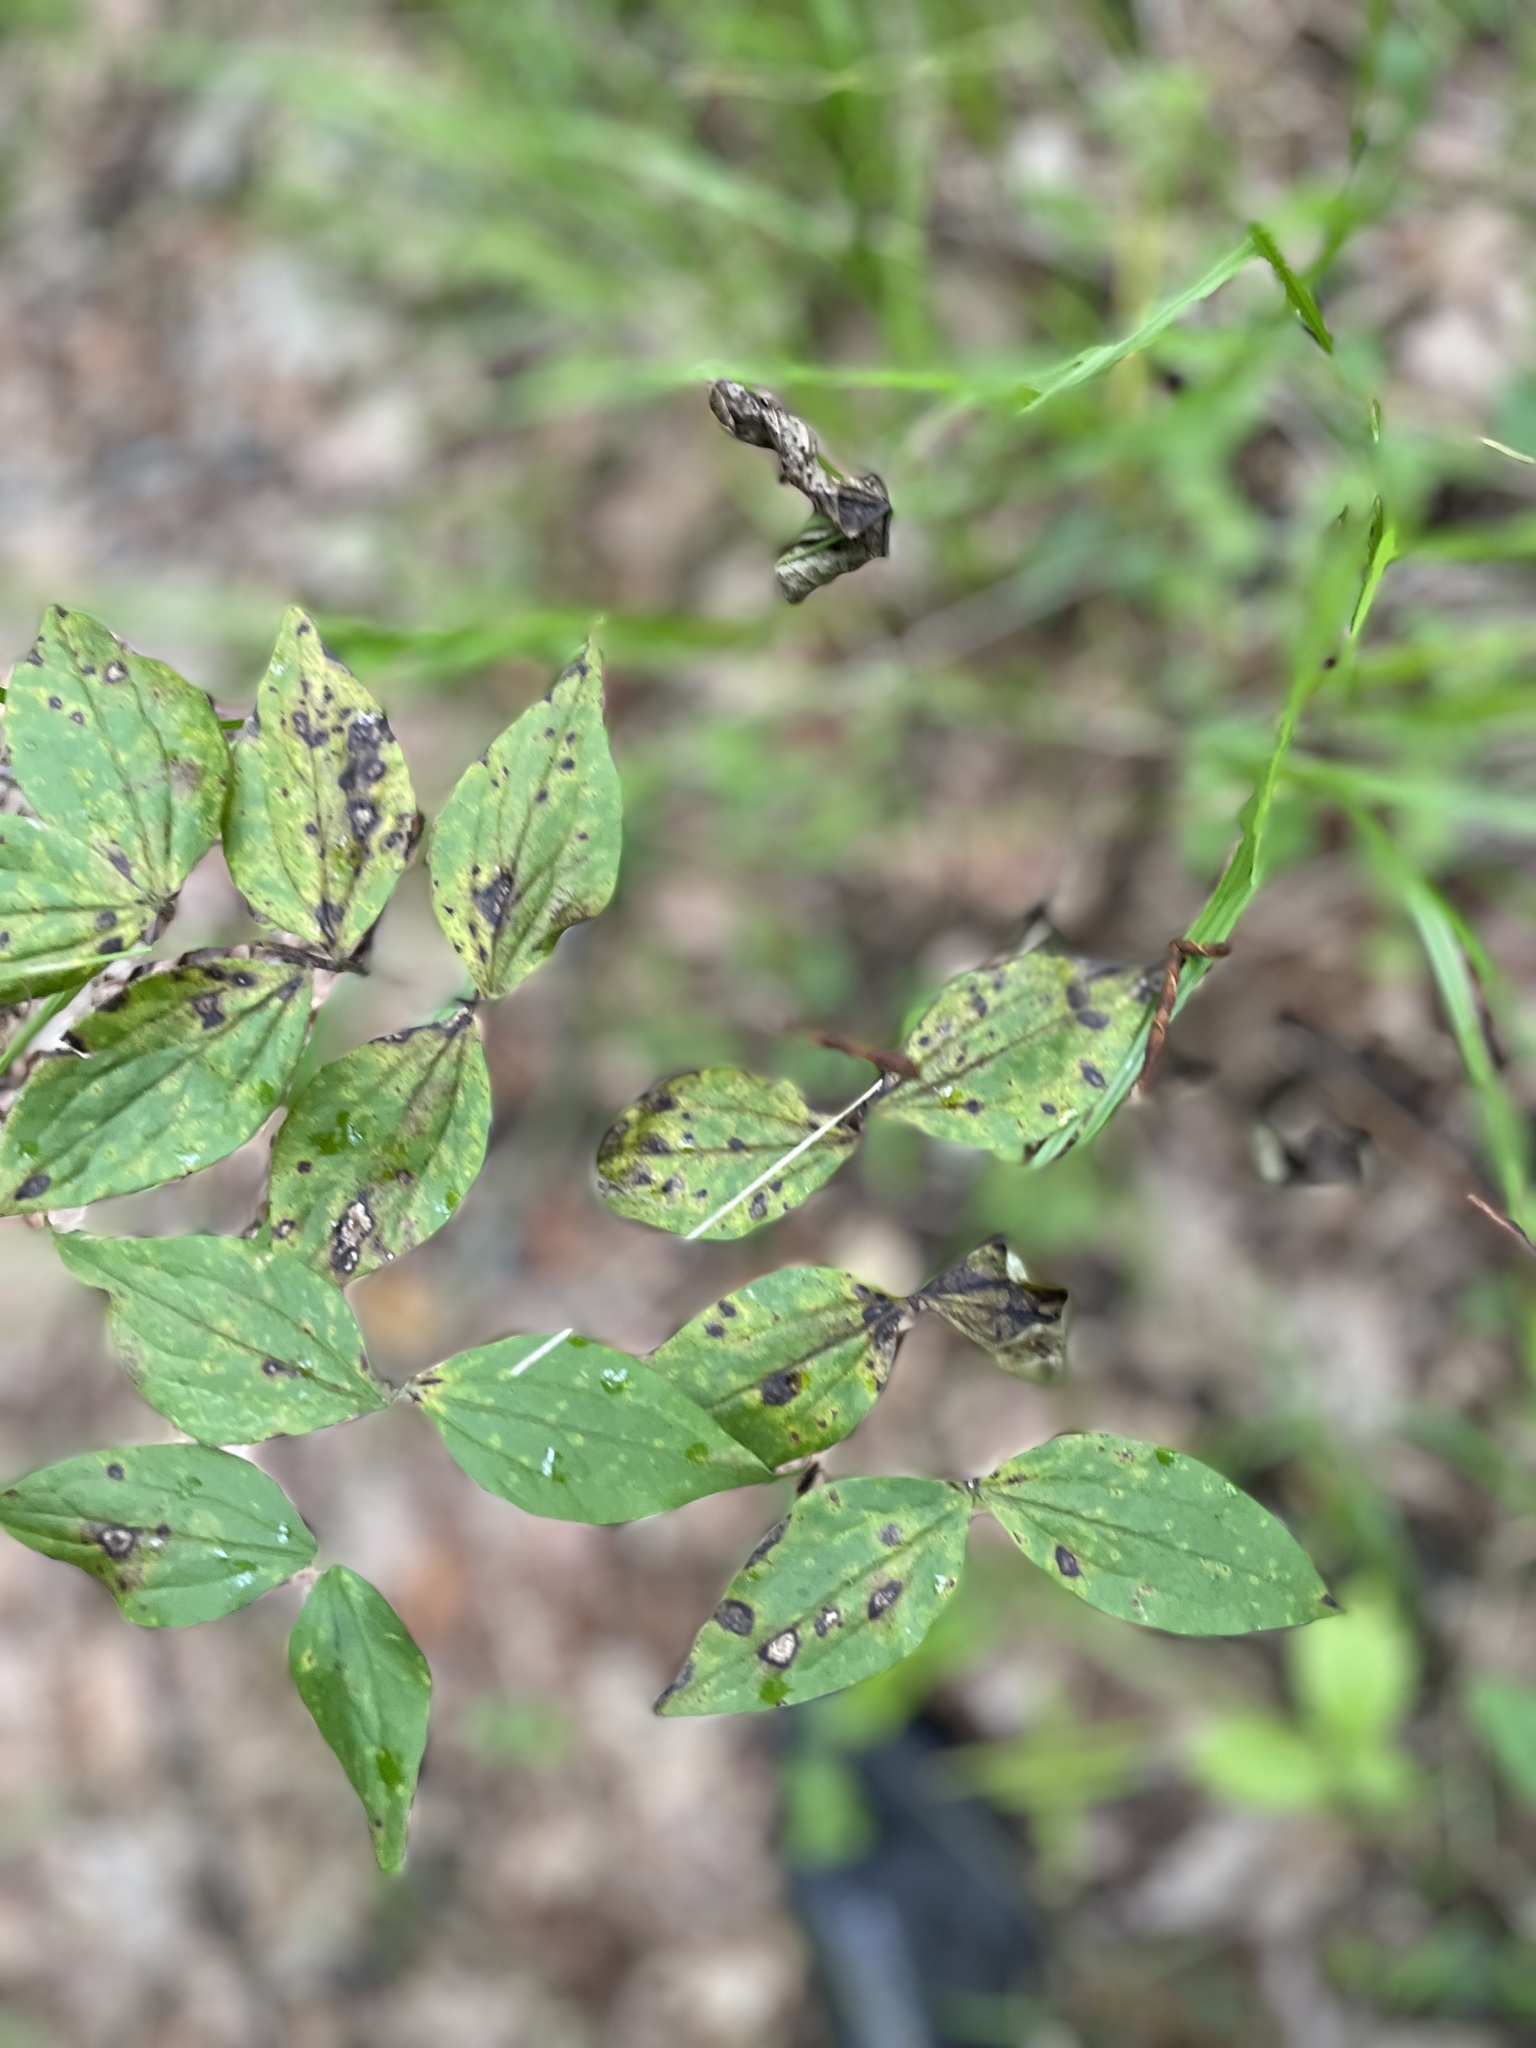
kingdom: Plantae
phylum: Tracheophyta
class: Magnoliopsida
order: Fabales
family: Fabaceae
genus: Lathyrus
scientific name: Lathyrus vernus
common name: Spring pea
